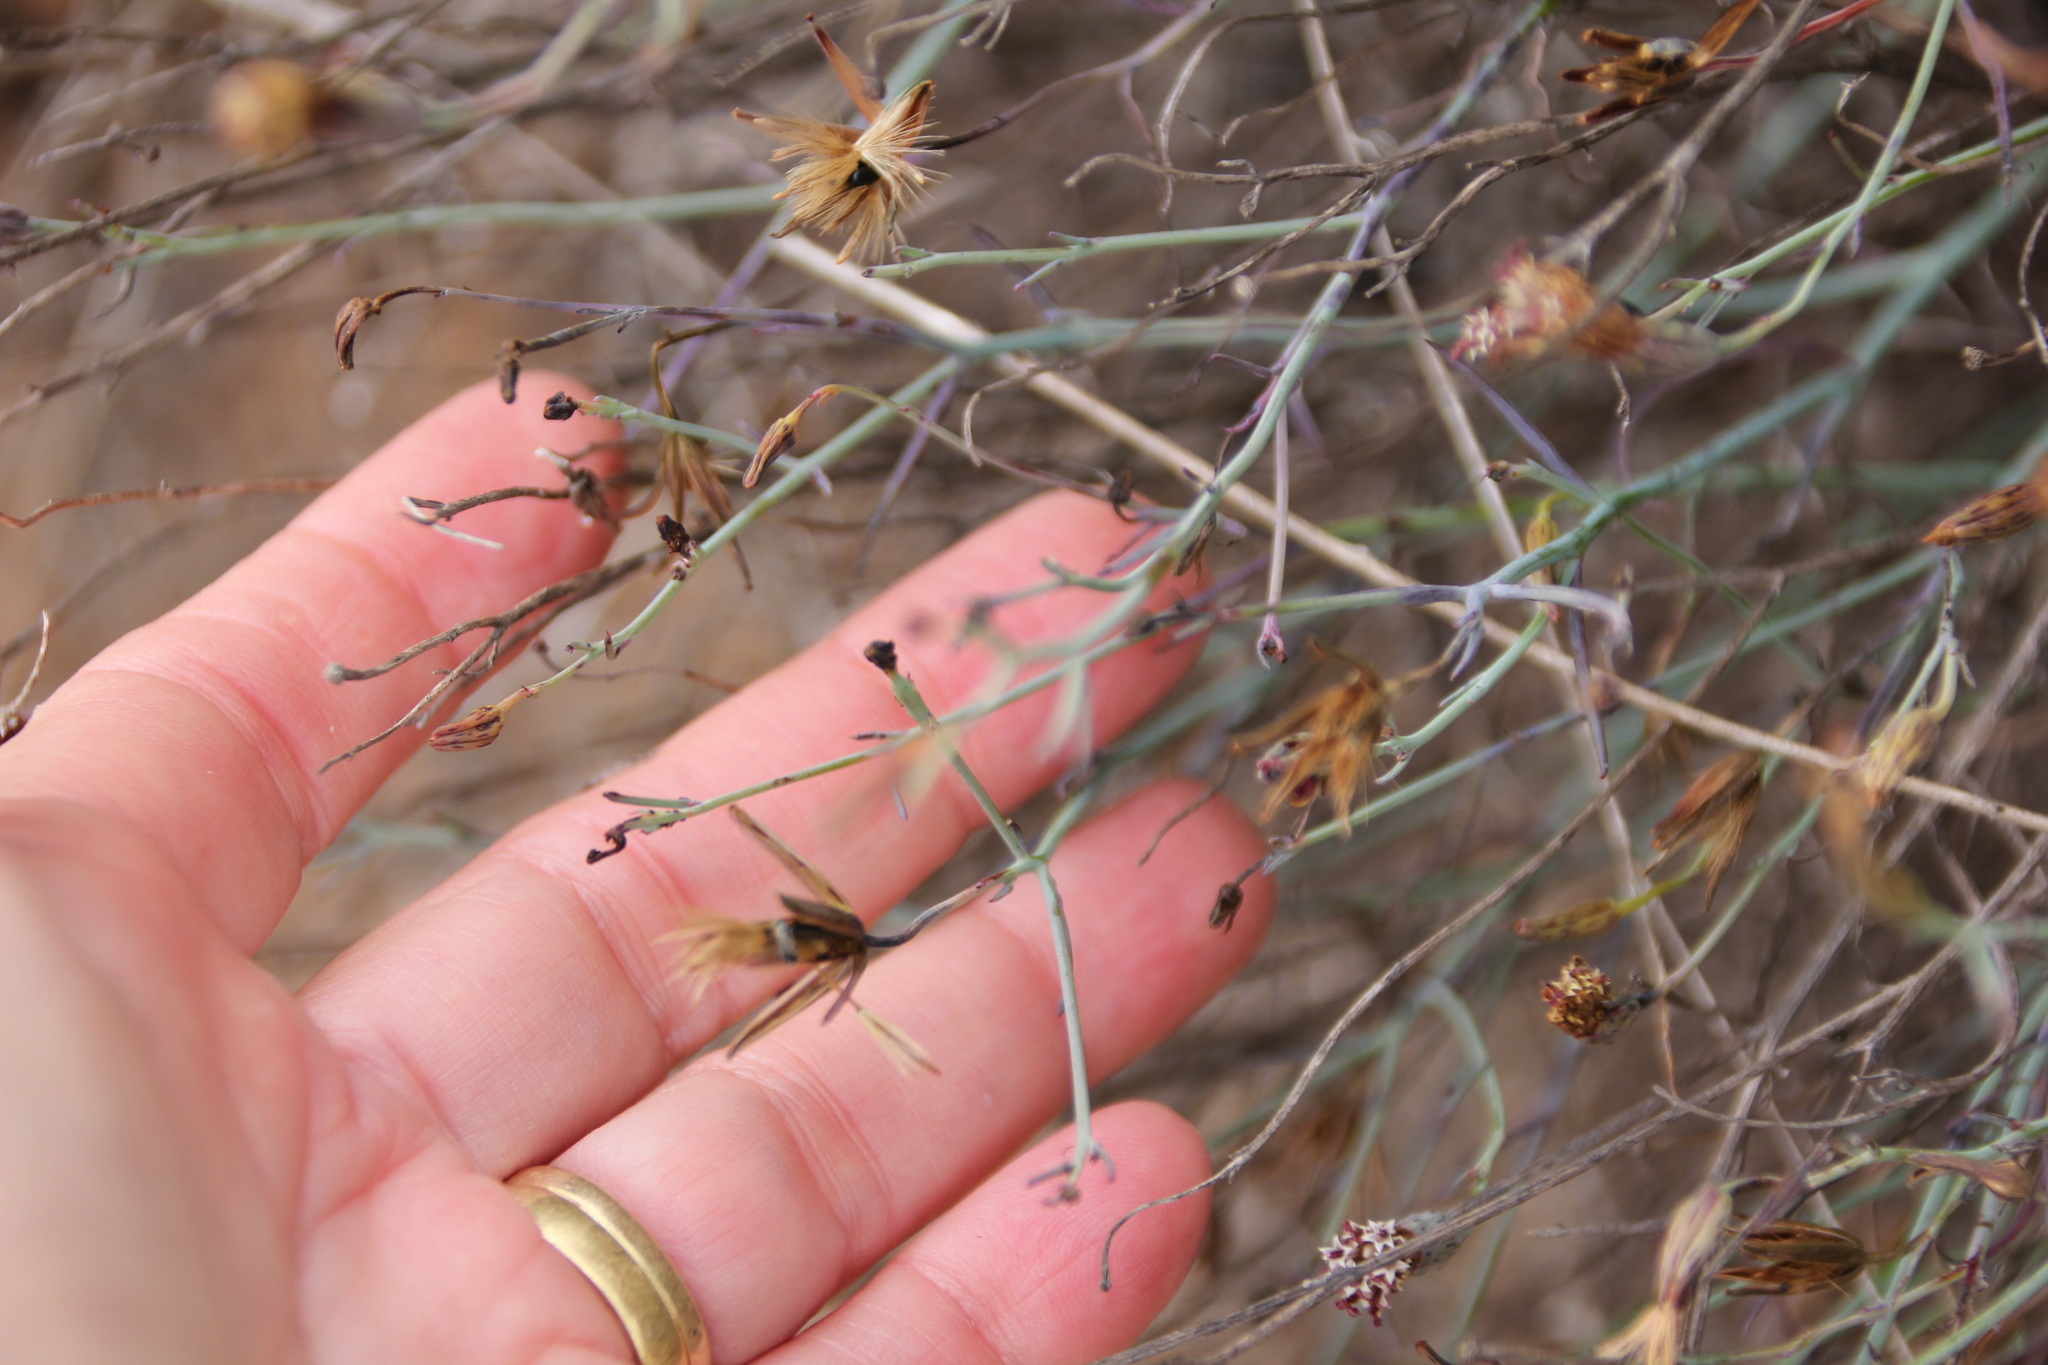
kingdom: Plantae
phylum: Tracheophyta
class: Magnoliopsida
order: Asterales
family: Asteraceae
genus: Porophyllum
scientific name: Porophyllum gracile
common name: Odora
